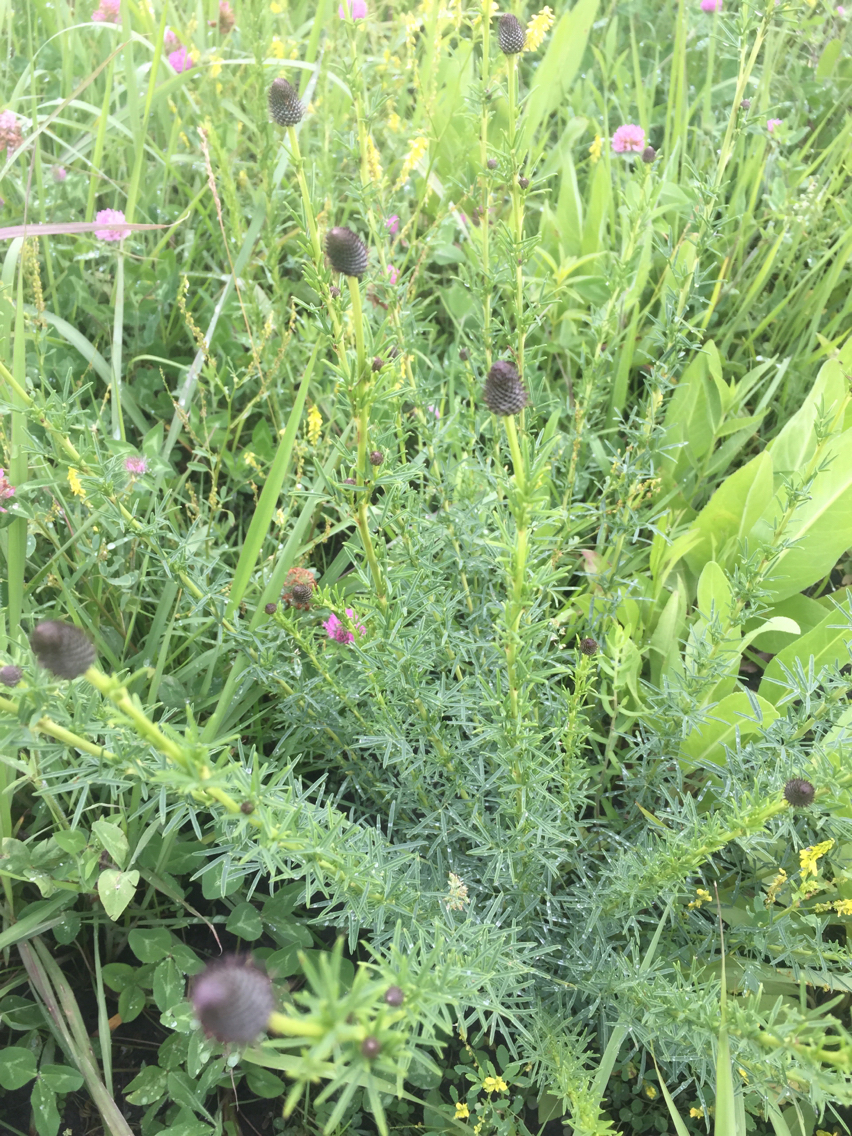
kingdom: Plantae
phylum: Tracheophyta
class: Magnoliopsida
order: Fabales
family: Fabaceae
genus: Dalea
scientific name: Dalea purpurea
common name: Purple prairie-clover
